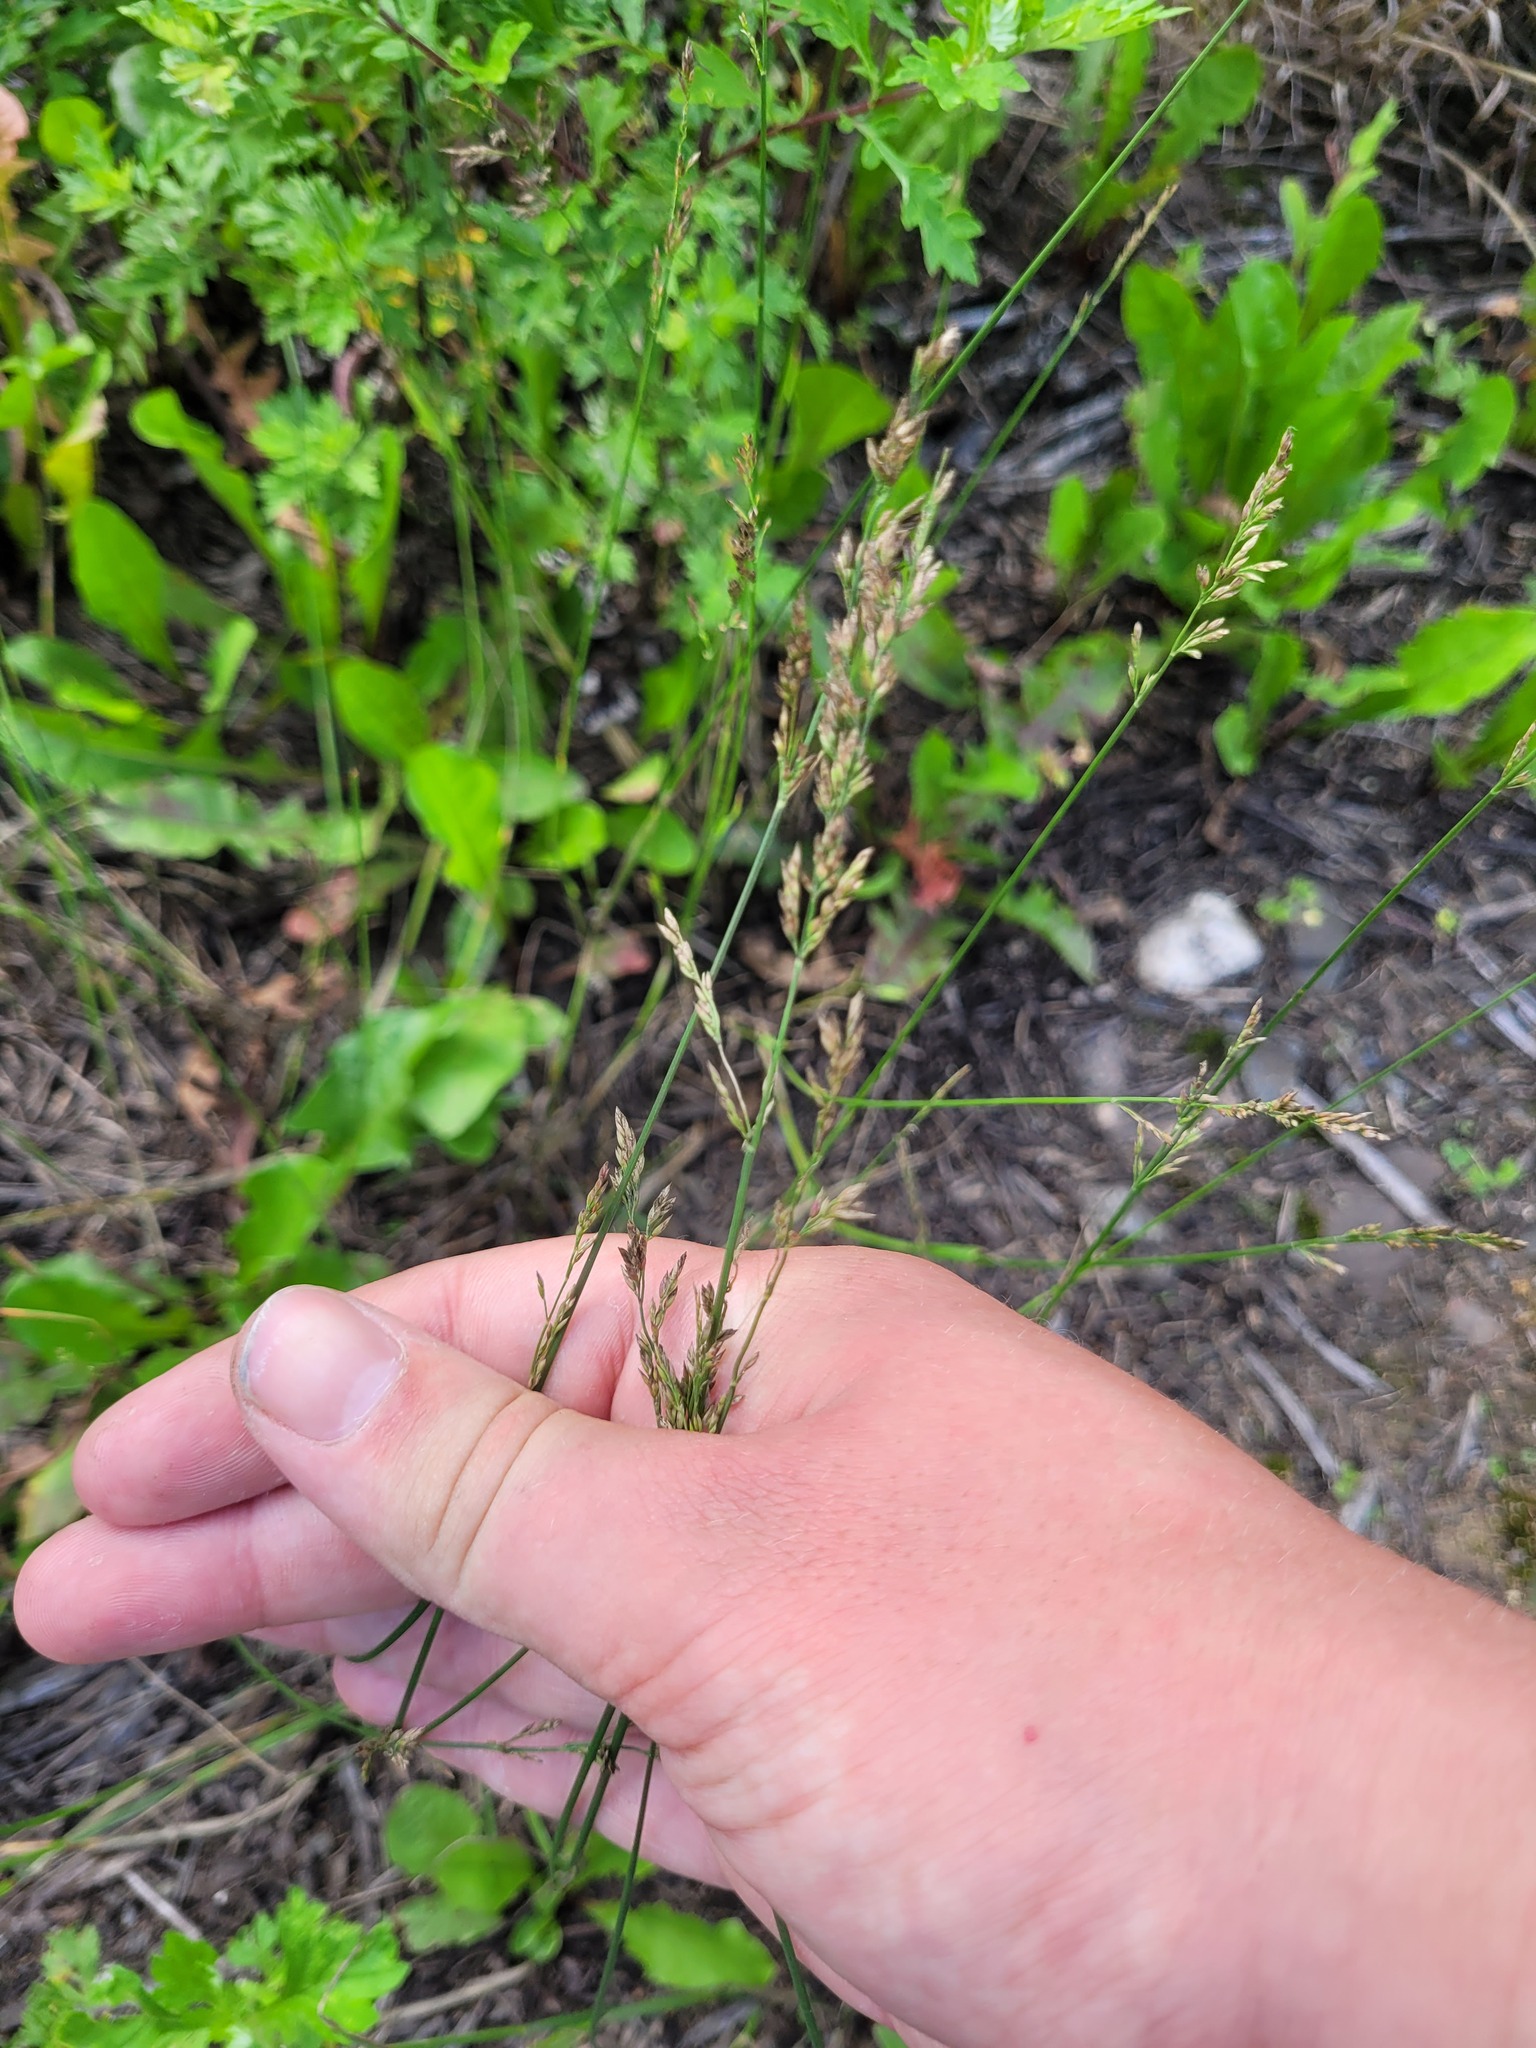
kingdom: Plantae
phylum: Tracheophyta
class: Liliopsida
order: Poales
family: Poaceae
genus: Poa
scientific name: Poa compressa
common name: Canada bluegrass
